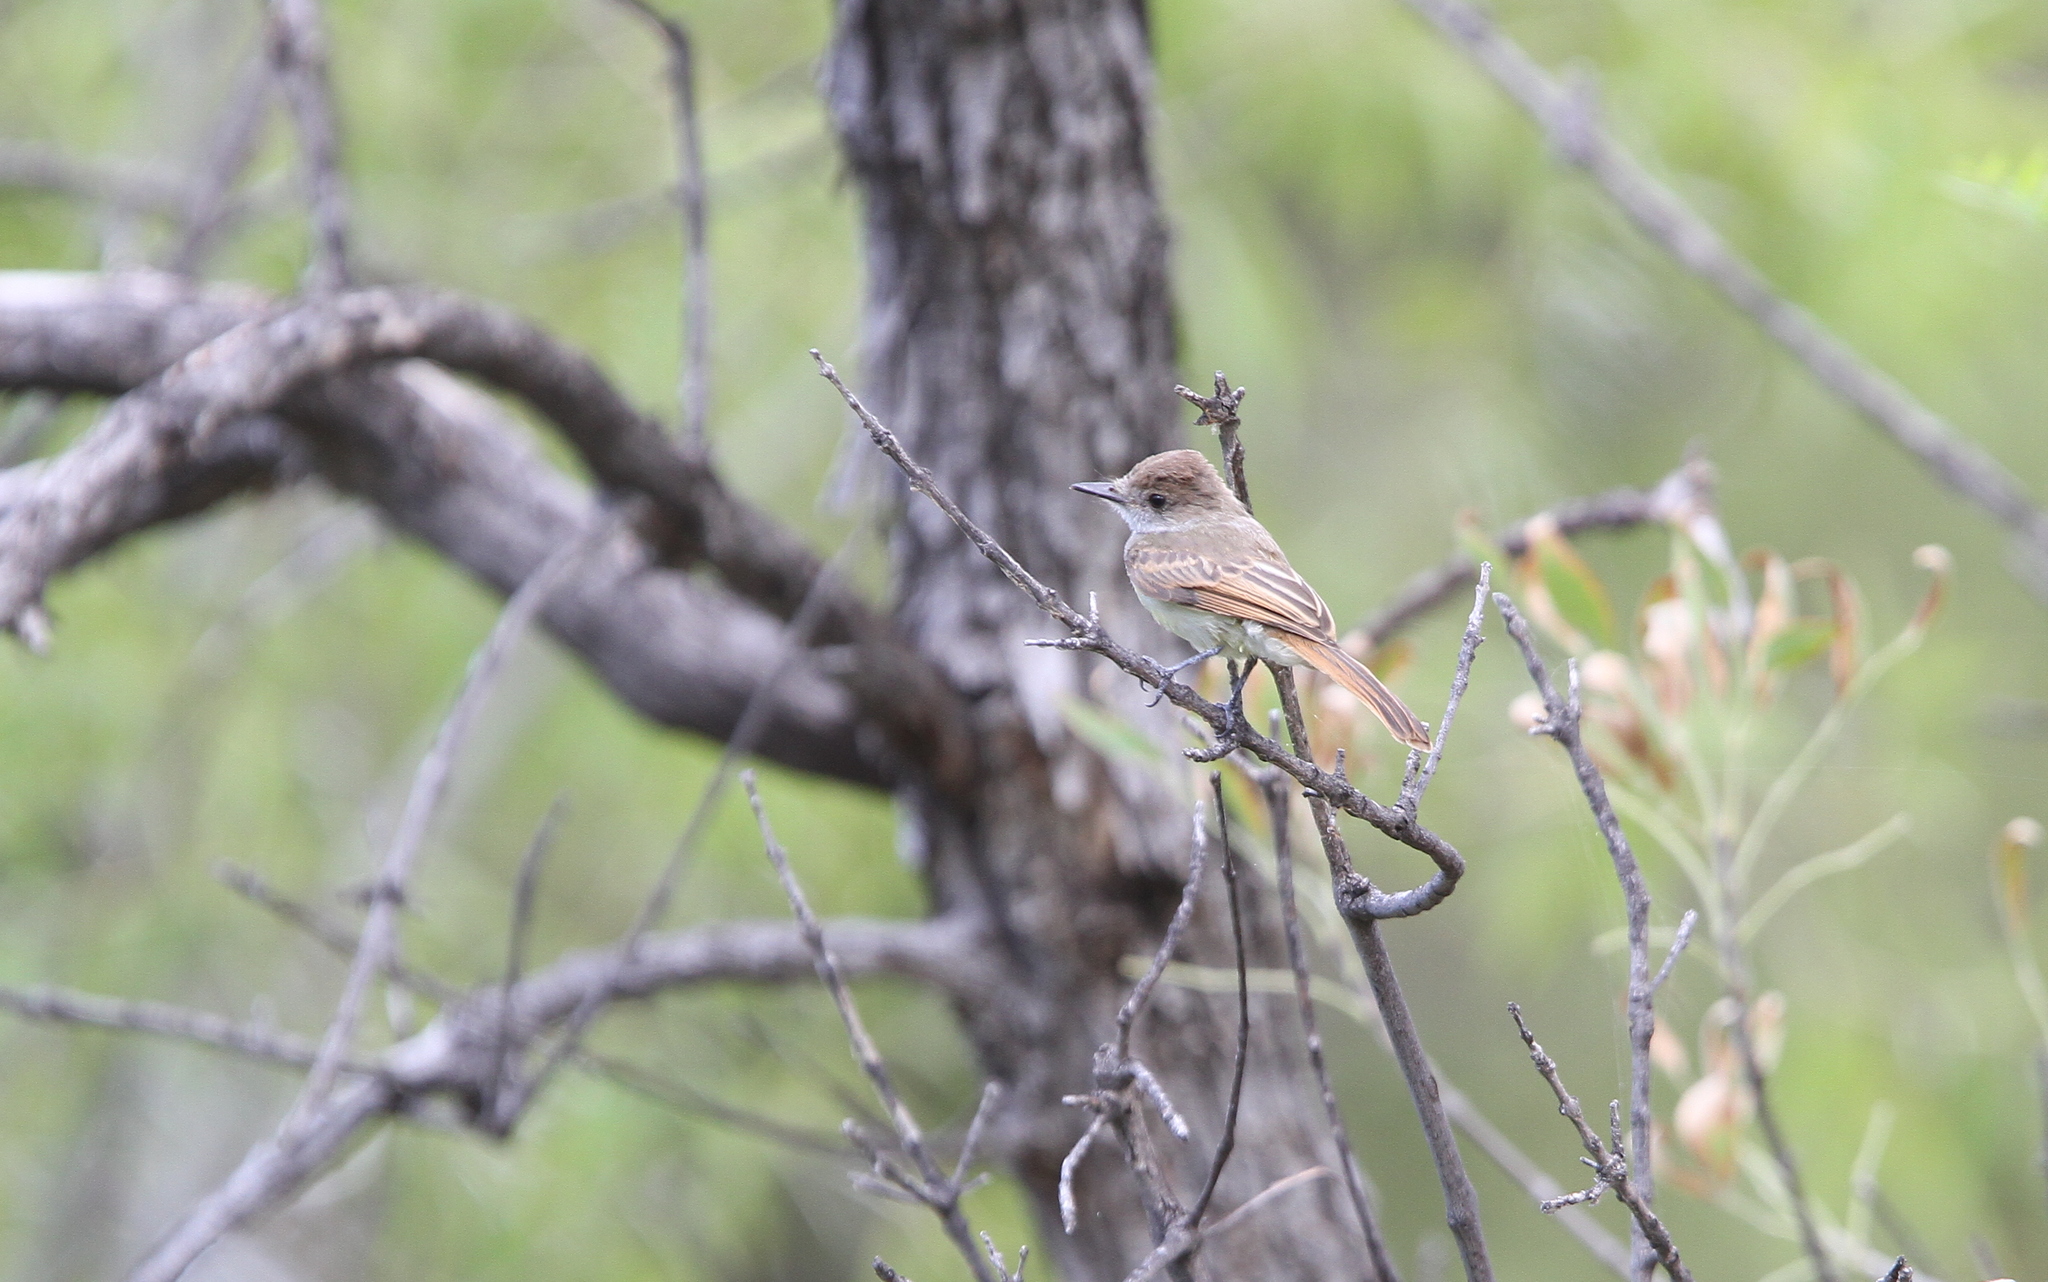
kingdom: Animalia
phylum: Chordata
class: Aves
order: Passeriformes
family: Tyrannidae
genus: Myiarchus
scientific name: Myiarchus tuberculifer
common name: Dusky-capped flycatcher
